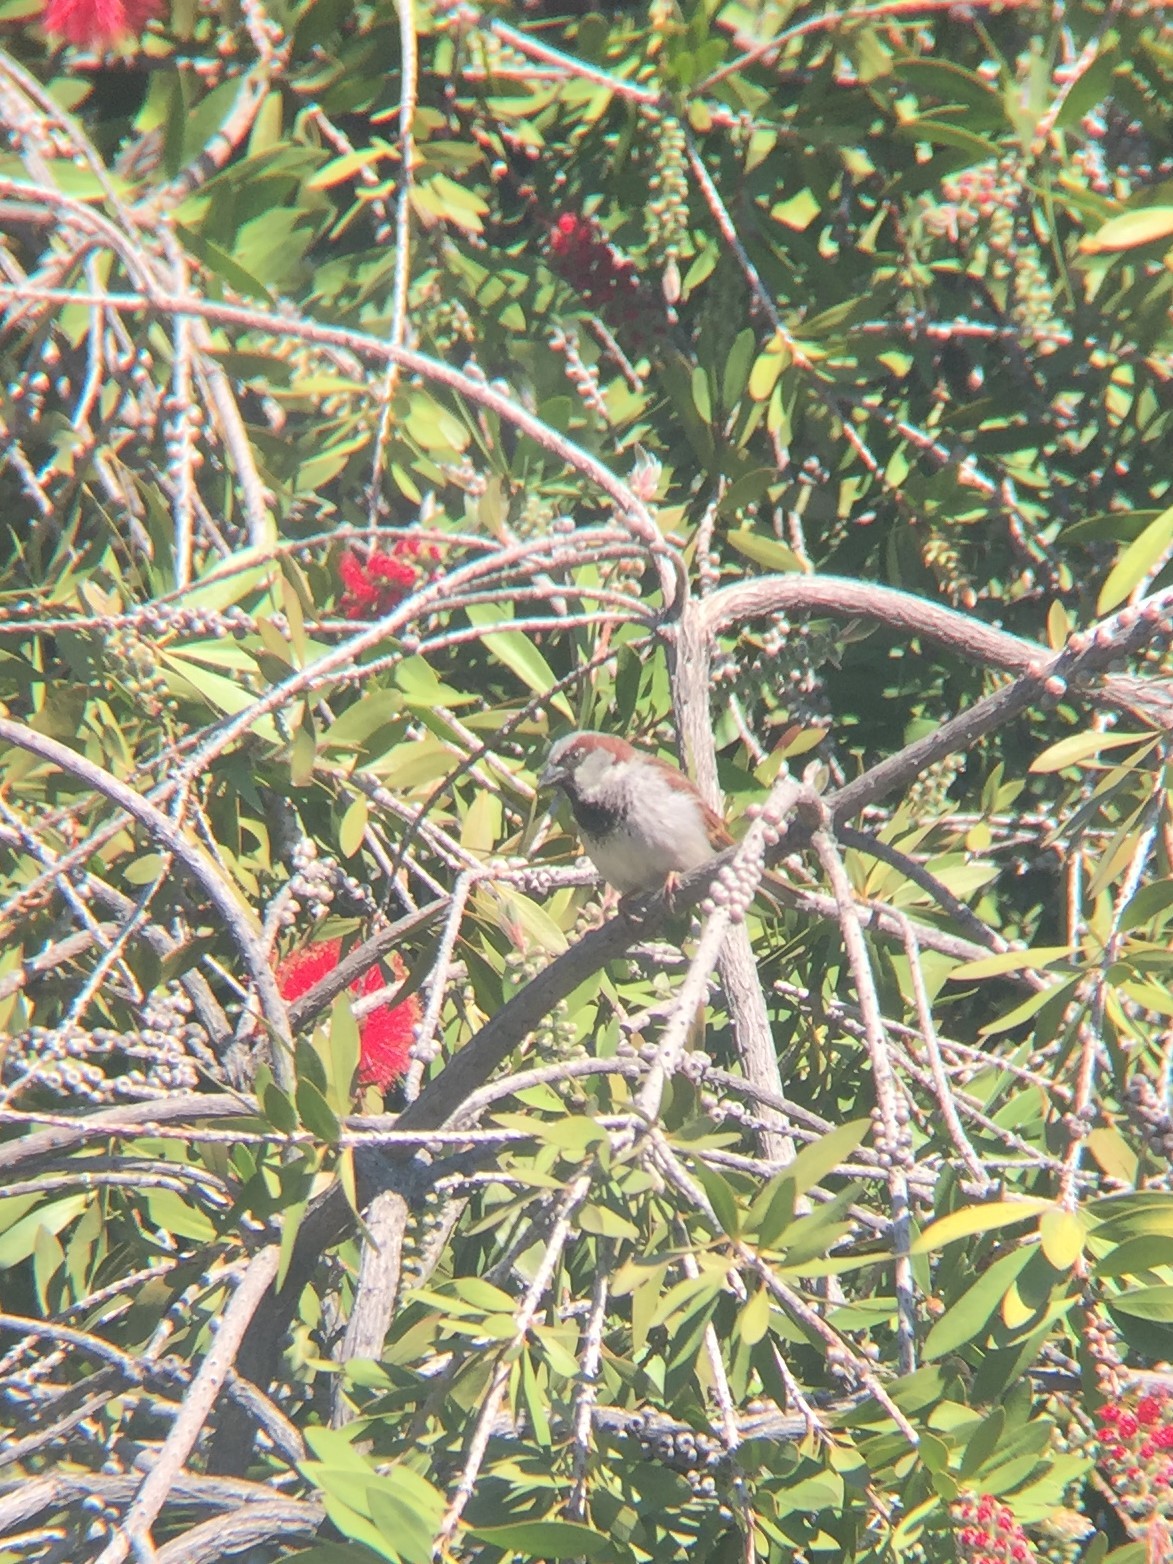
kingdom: Animalia
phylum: Chordata
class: Aves
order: Passeriformes
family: Passeridae
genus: Passer
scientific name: Passer domesticus
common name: House sparrow
